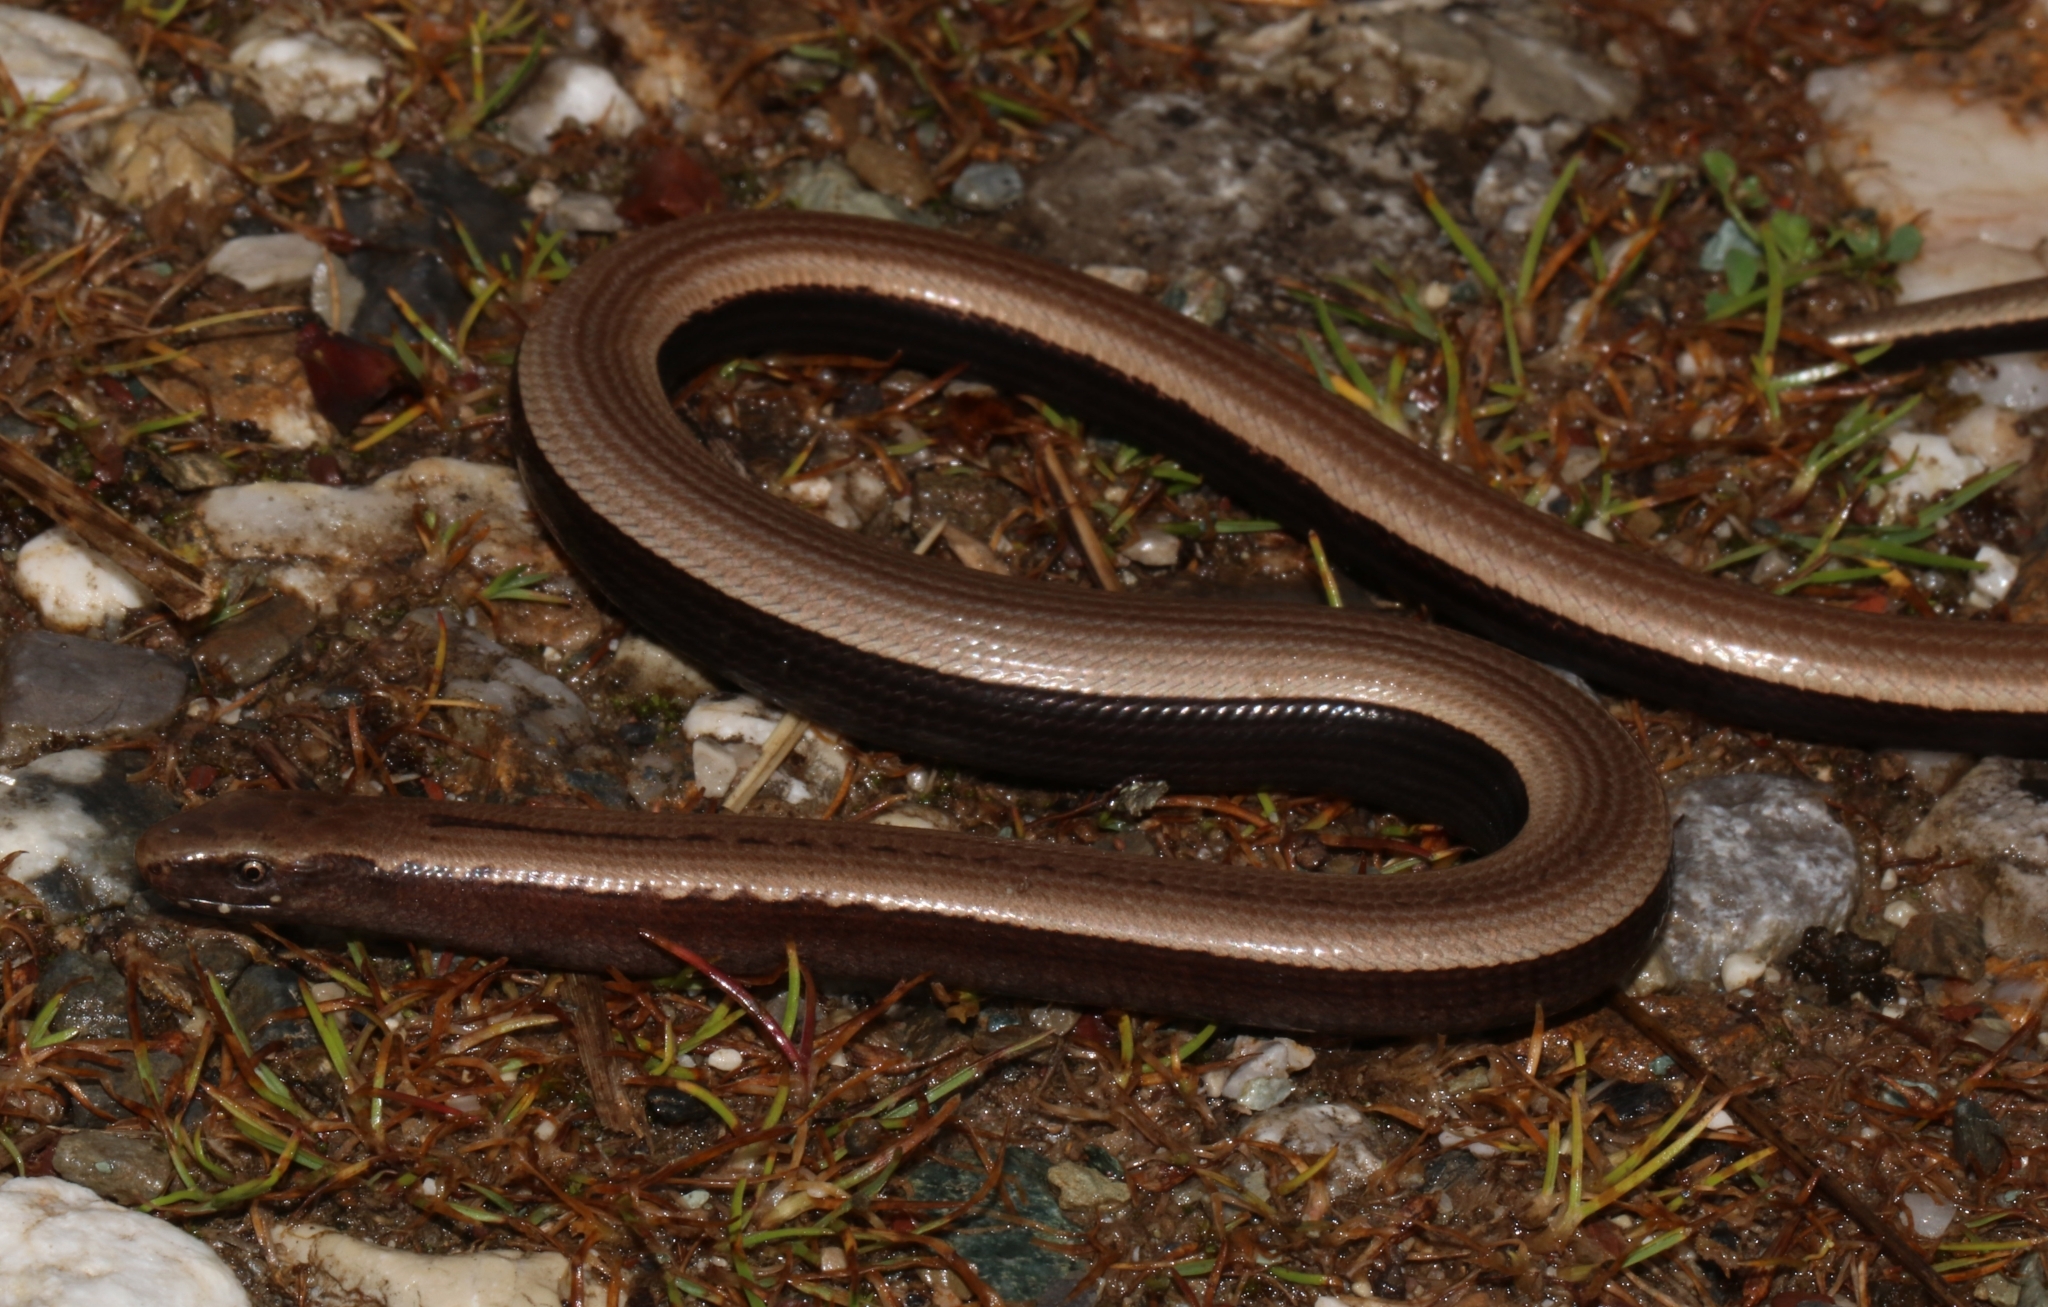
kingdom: Animalia
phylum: Chordata
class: Squamata
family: Anguidae
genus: Anguis
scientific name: Anguis cephallonica
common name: Peloponnese slow worm
